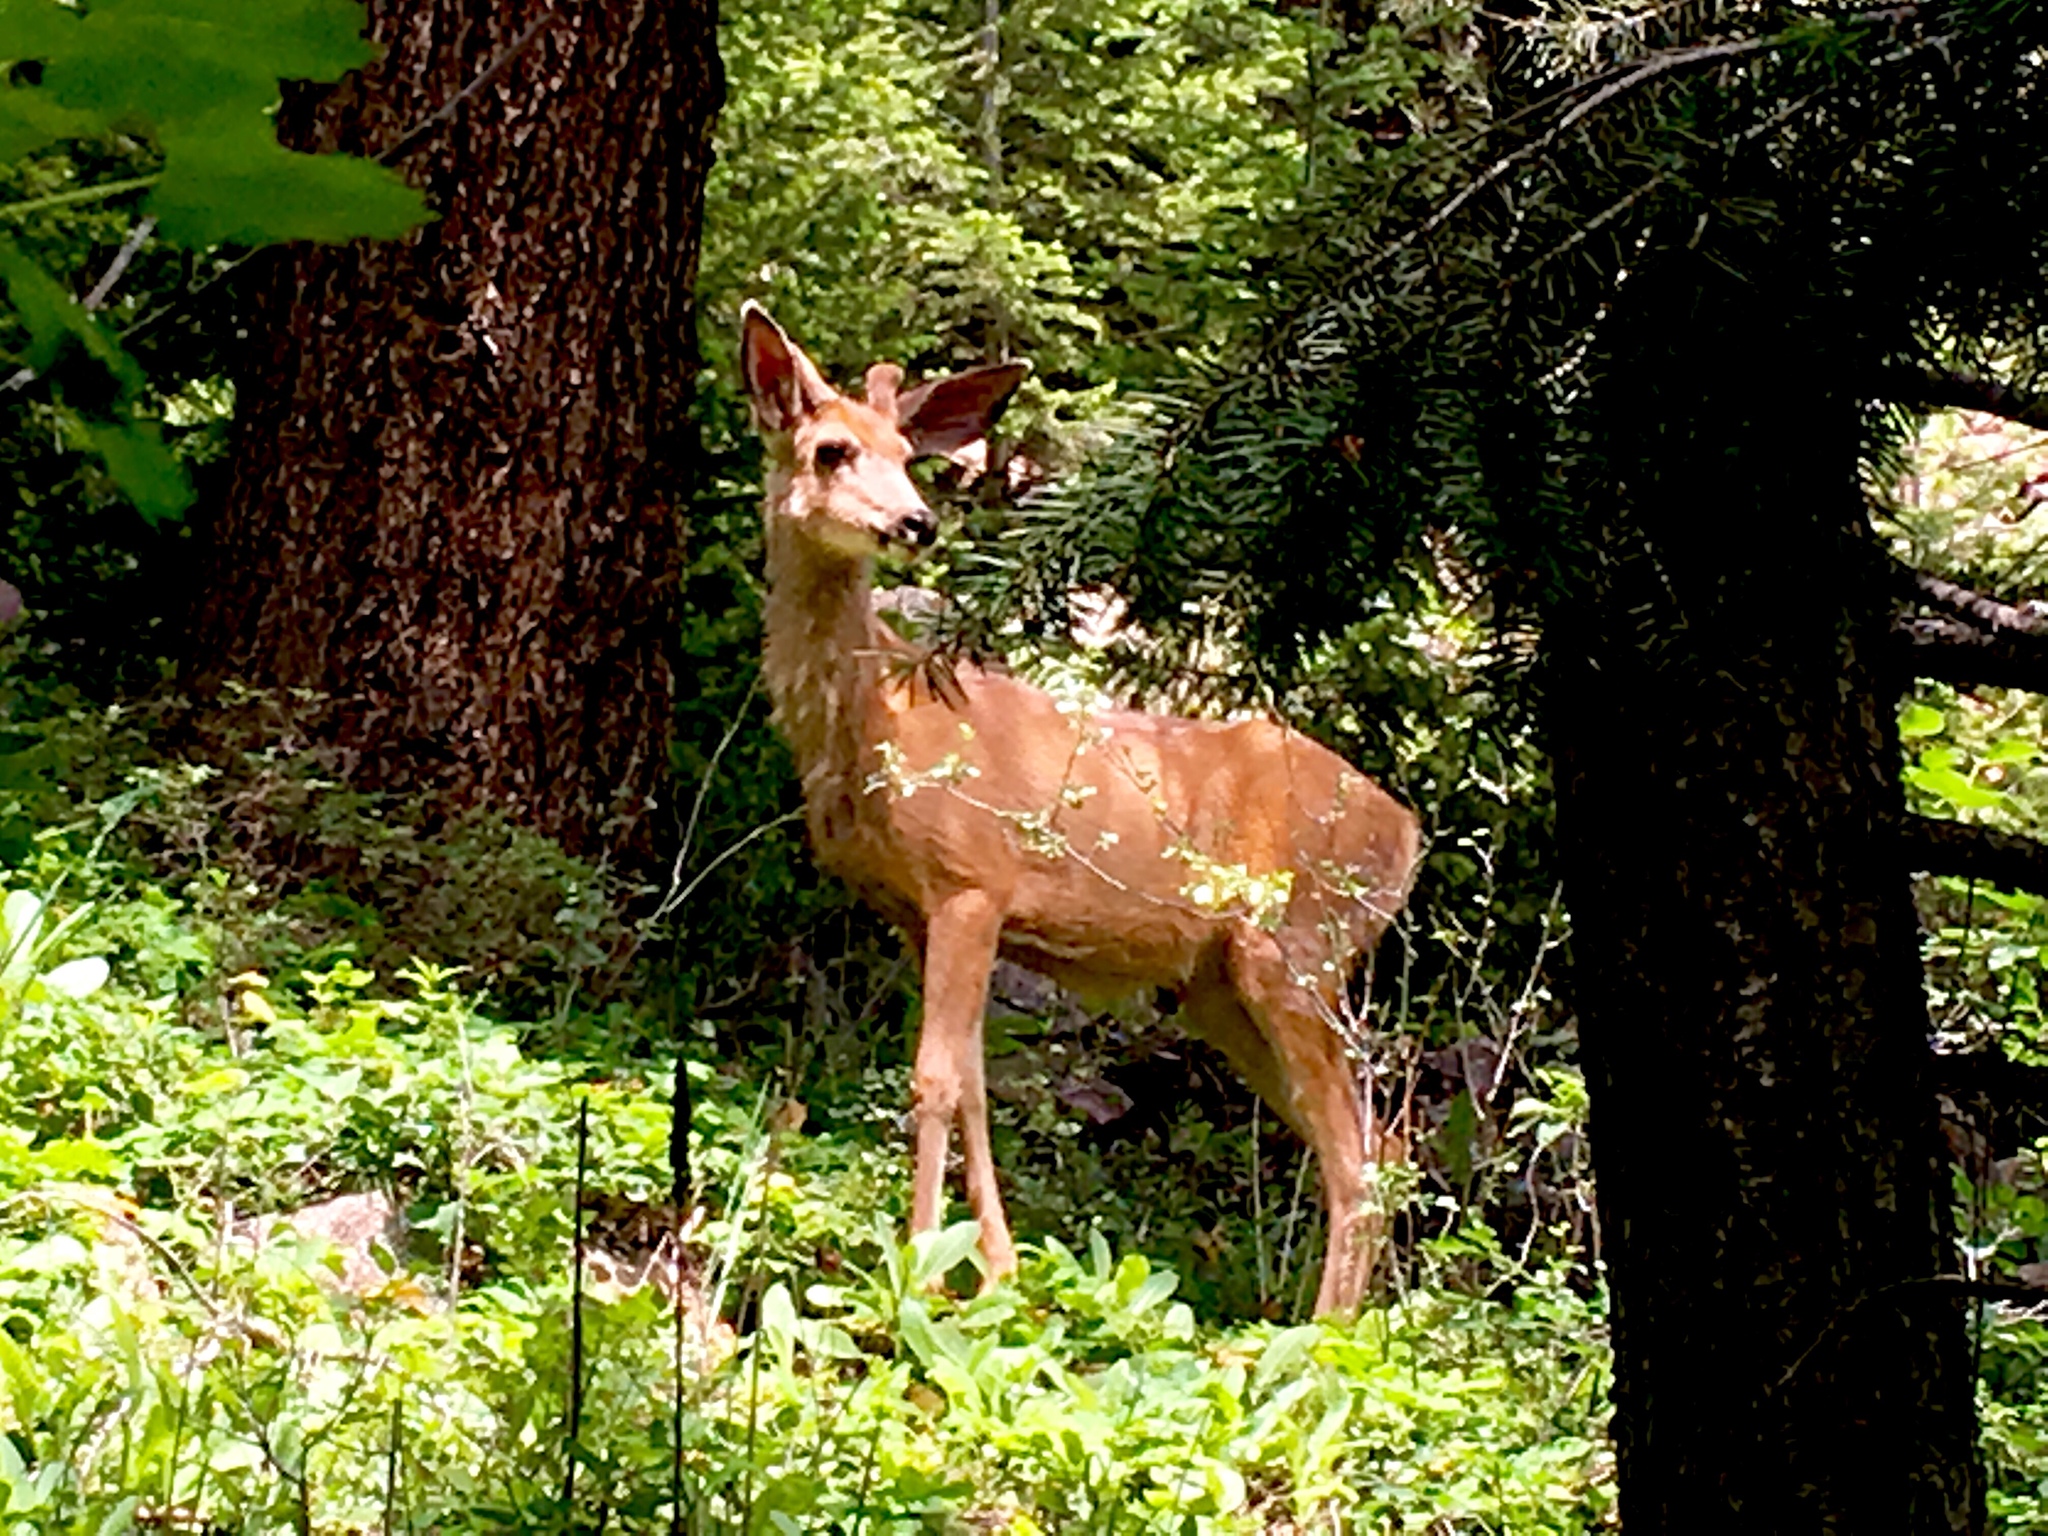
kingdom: Animalia
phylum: Chordata
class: Mammalia
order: Artiodactyla
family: Cervidae
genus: Odocoileus
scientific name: Odocoileus hemionus
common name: Mule deer
